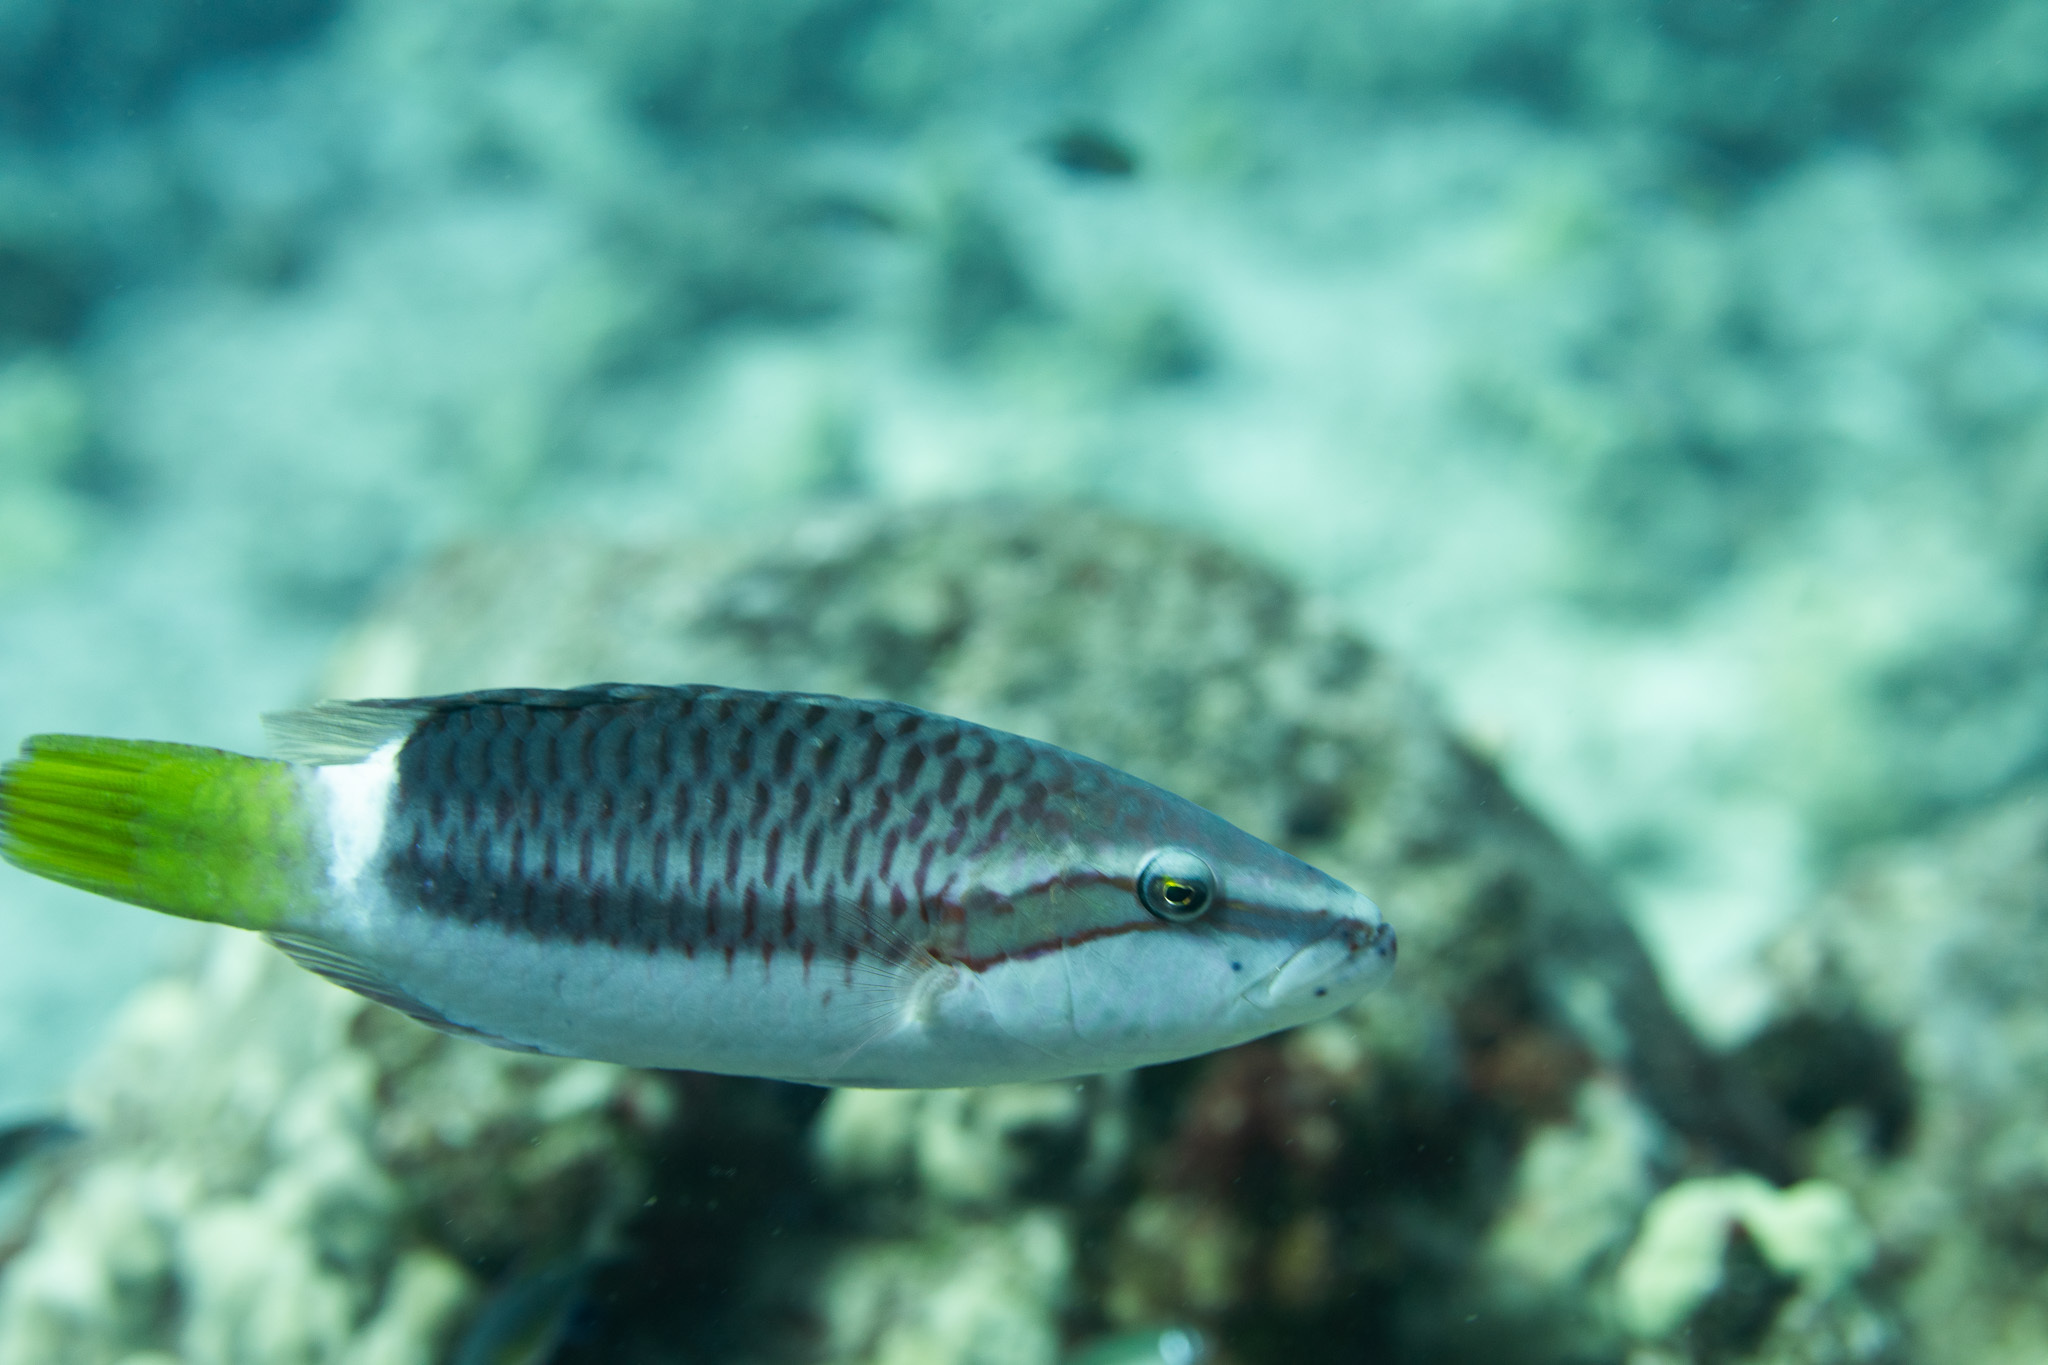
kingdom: Animalia
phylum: Chordata
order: Perciformes
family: Labridae
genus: Oxycheilinus
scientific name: Oxycheilinus unifasciatus
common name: Ringtail maori wrasse
